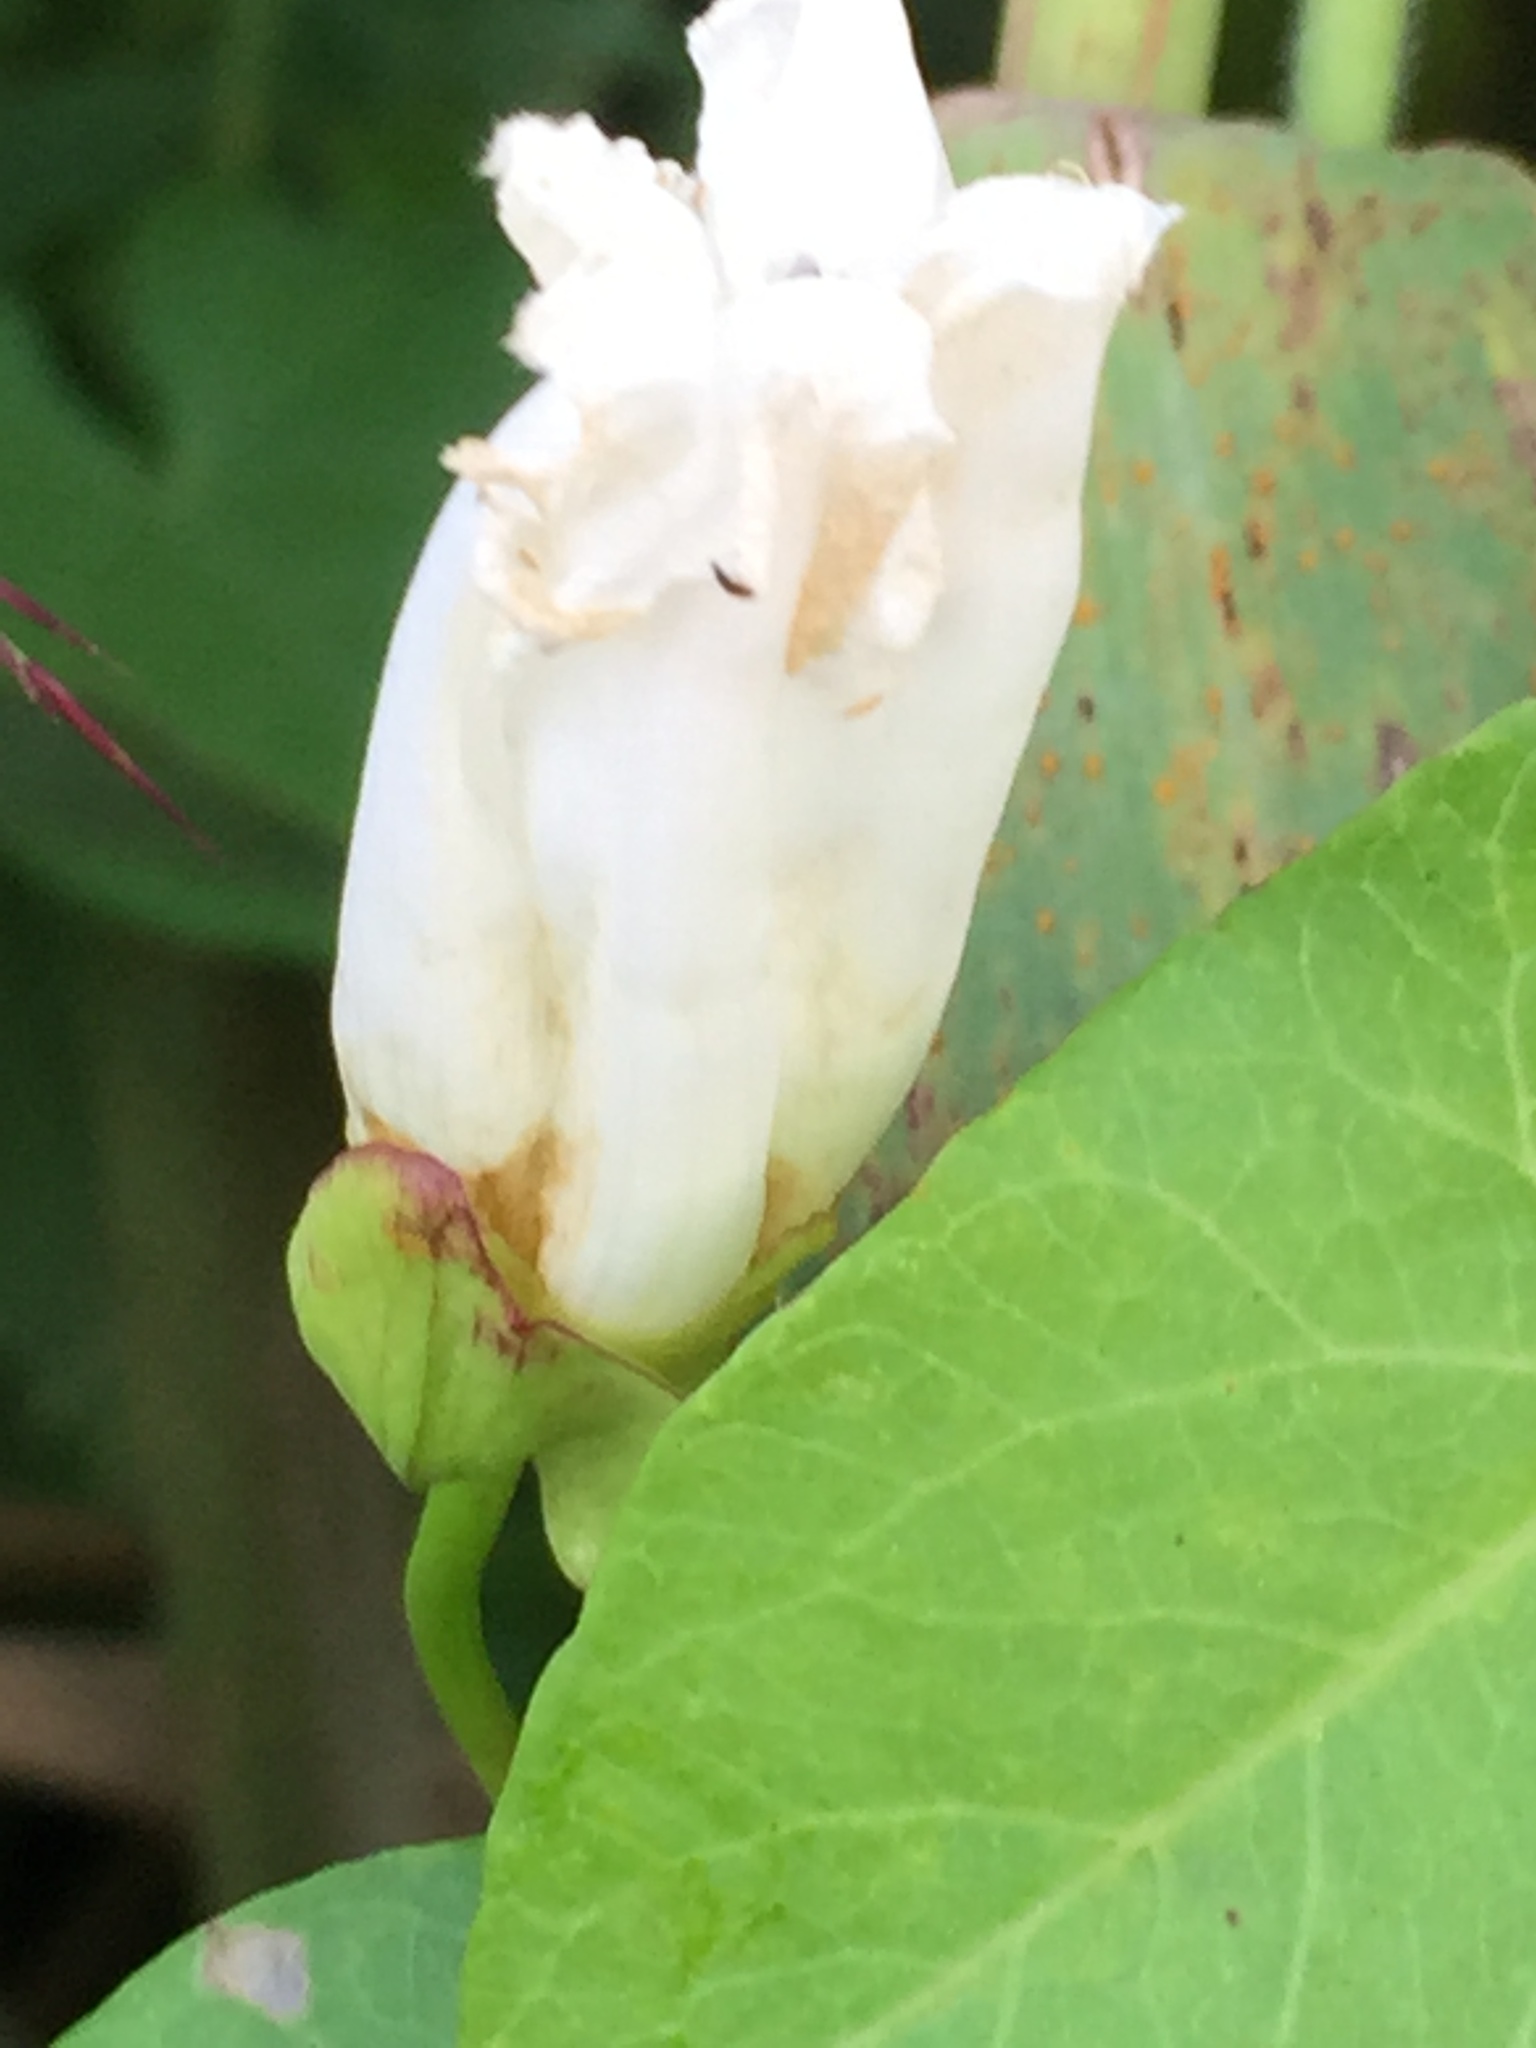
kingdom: Plantae
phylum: Tracheophyta
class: Magnoliopsida
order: Solanales
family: Convolvulaceae
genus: Calystegia
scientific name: Calystegia sepium
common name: Hedge bindweed
